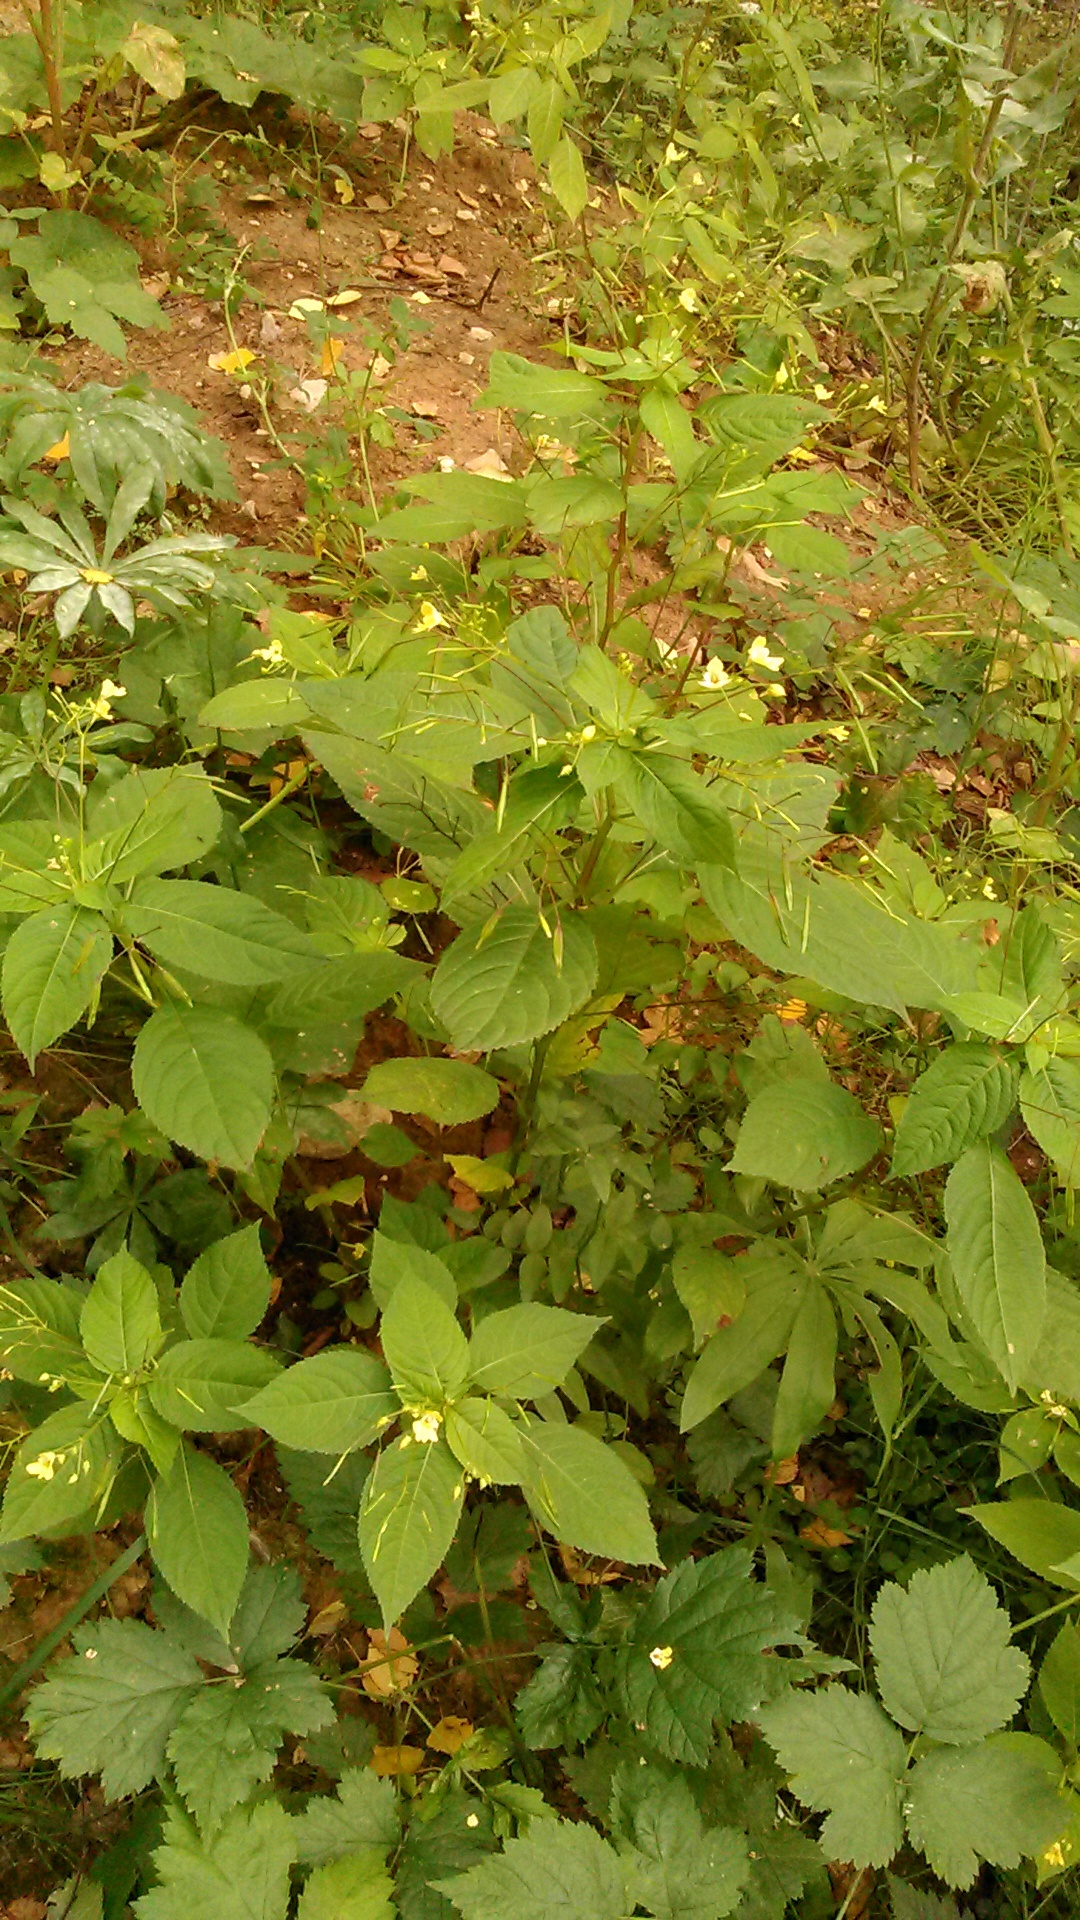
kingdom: Plantae
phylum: Tracheophyta
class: Magnoliopsida
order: Ericales
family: Balsaminaceae
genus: Impatiens
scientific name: Impatiens parviflora
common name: Small balsam
